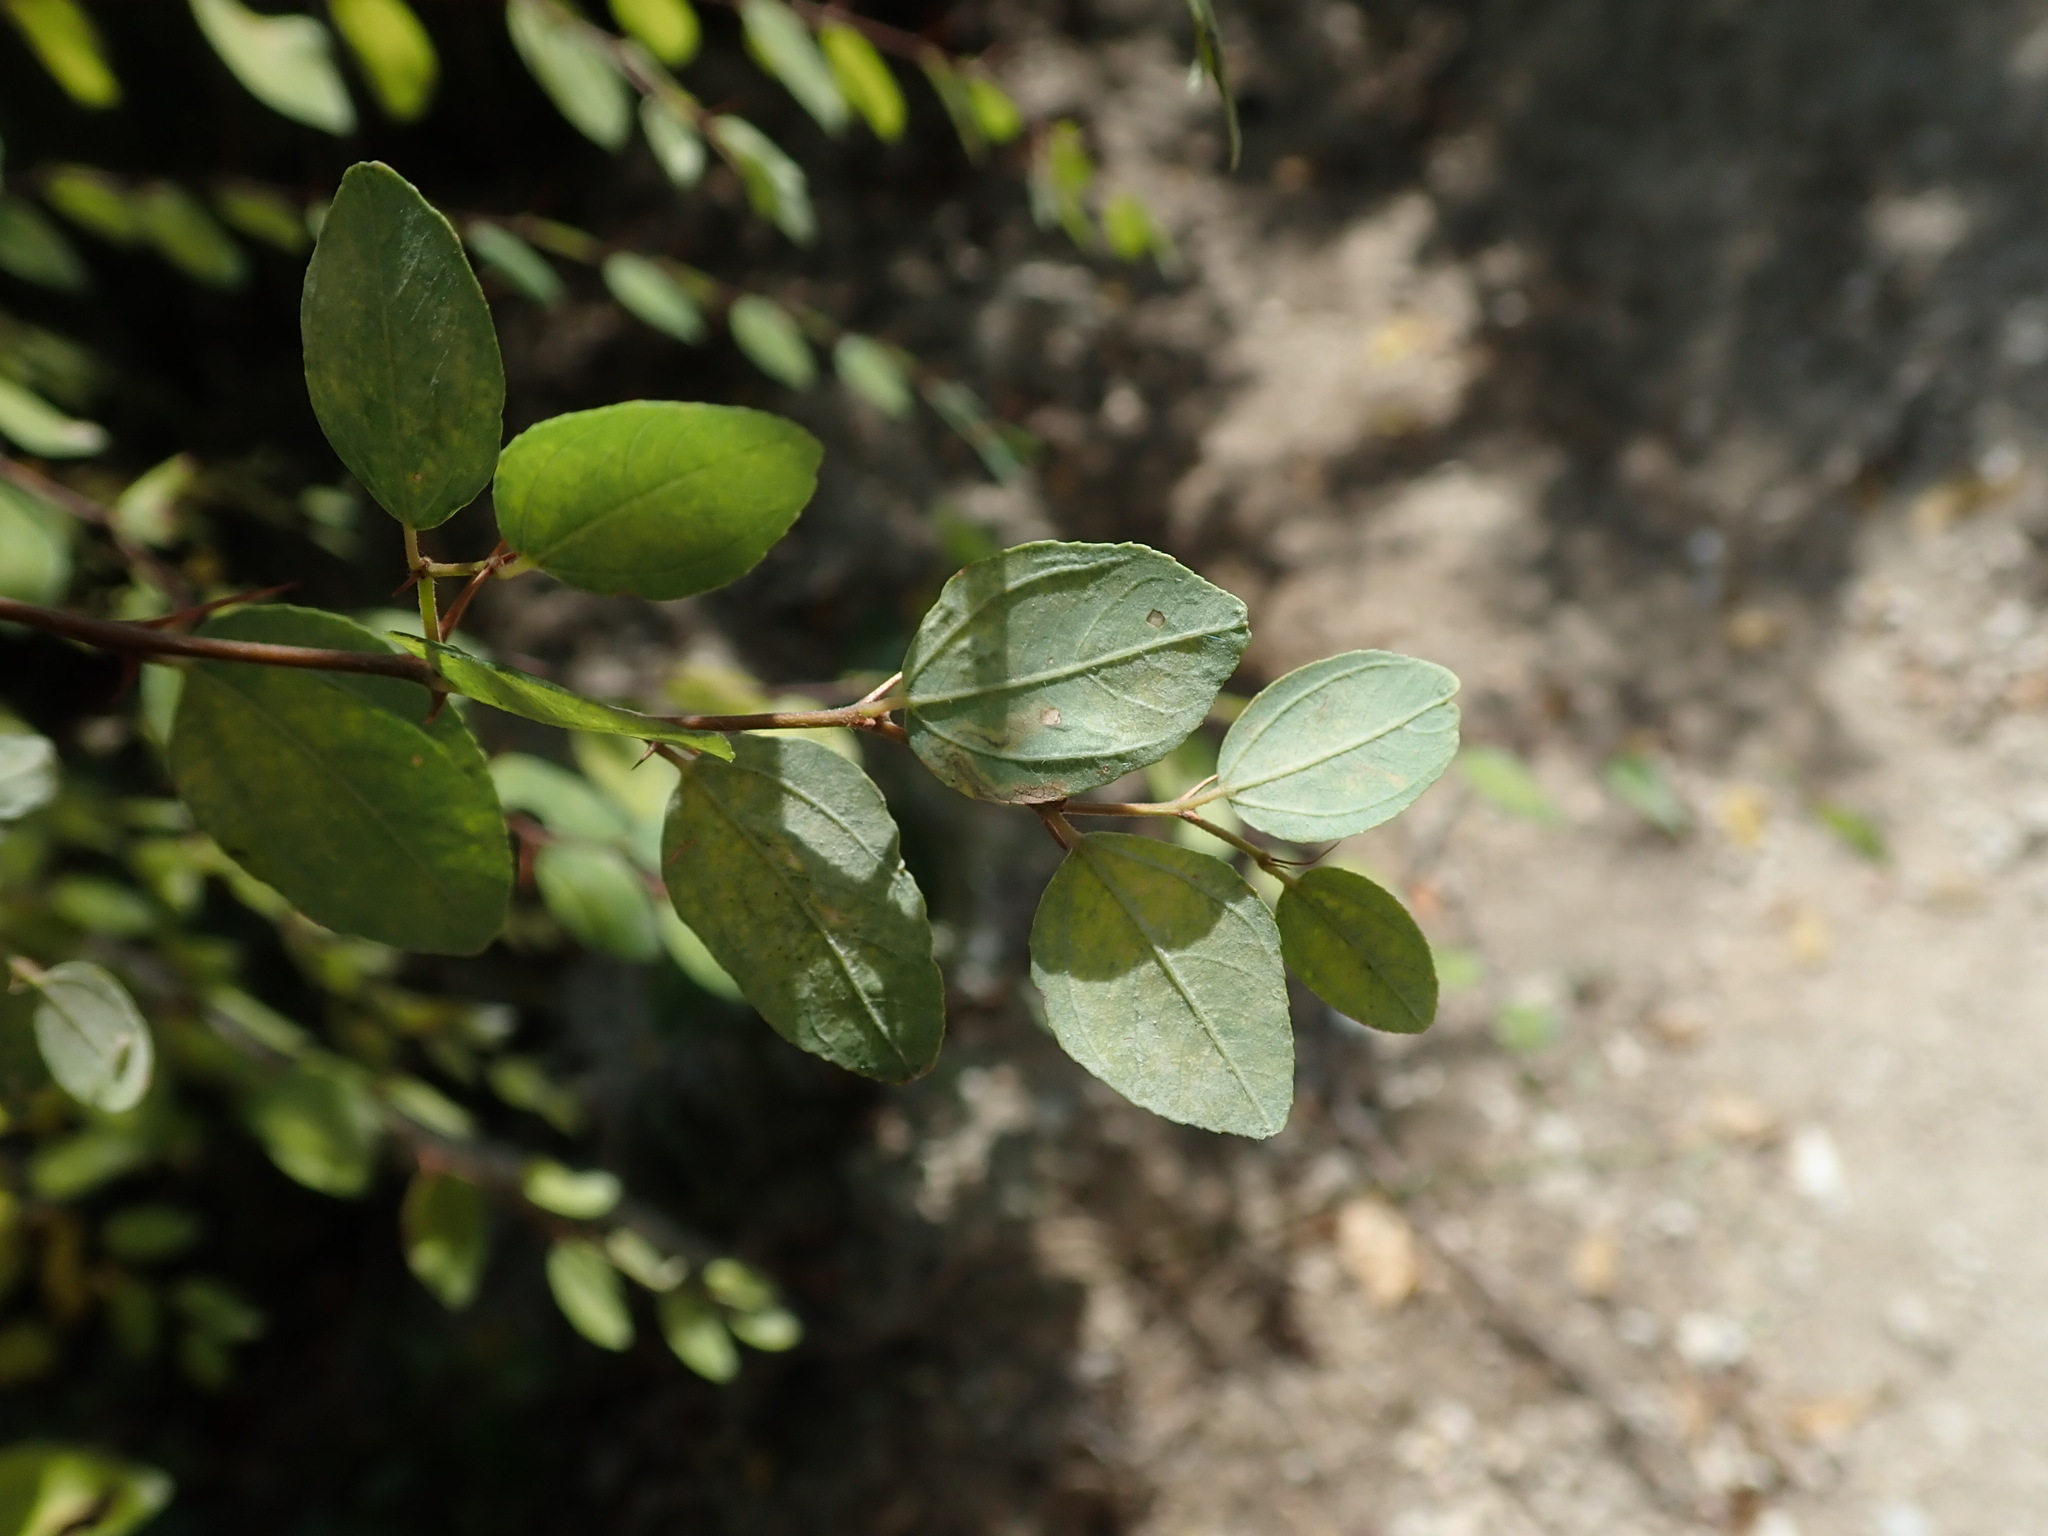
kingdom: Plantae
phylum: Tracheophyta
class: Magnoliopsida
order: Rosales
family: Rhamnaceae
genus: Paliurus
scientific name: Paliurus spina-christi
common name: Jeruselem thorn
